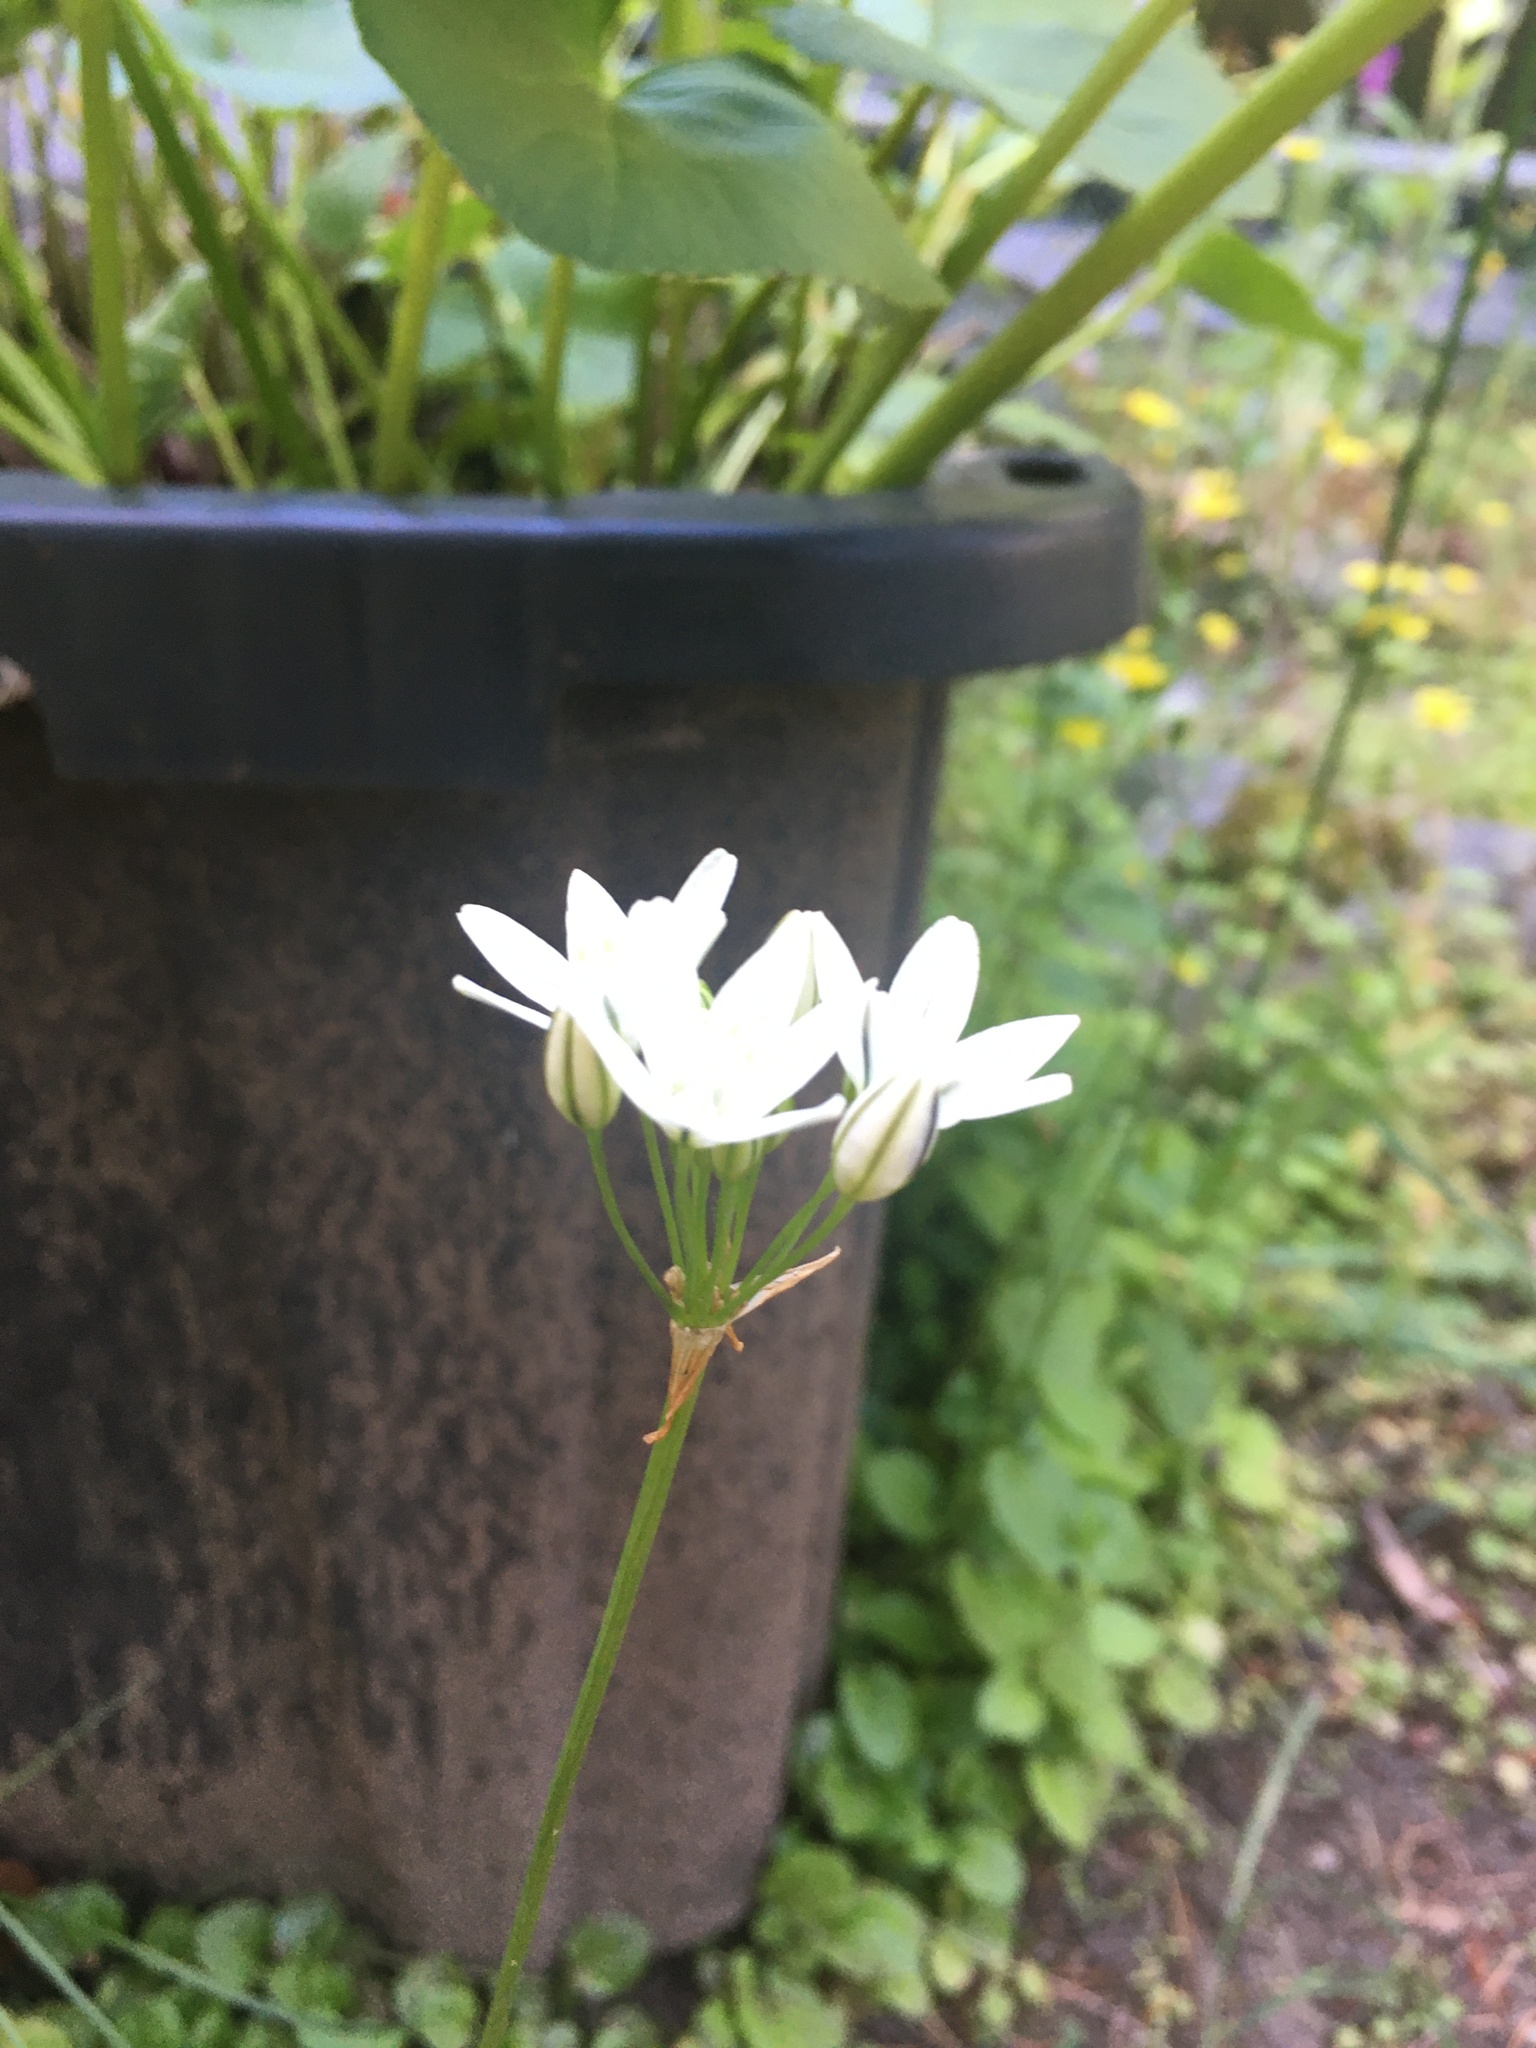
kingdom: Plantae
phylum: Tracheophyta
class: Liliopsida
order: Asparagales
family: Asparagaceae
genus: Triteleia
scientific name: Triteleia hyacinthina
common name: White brodiaea
